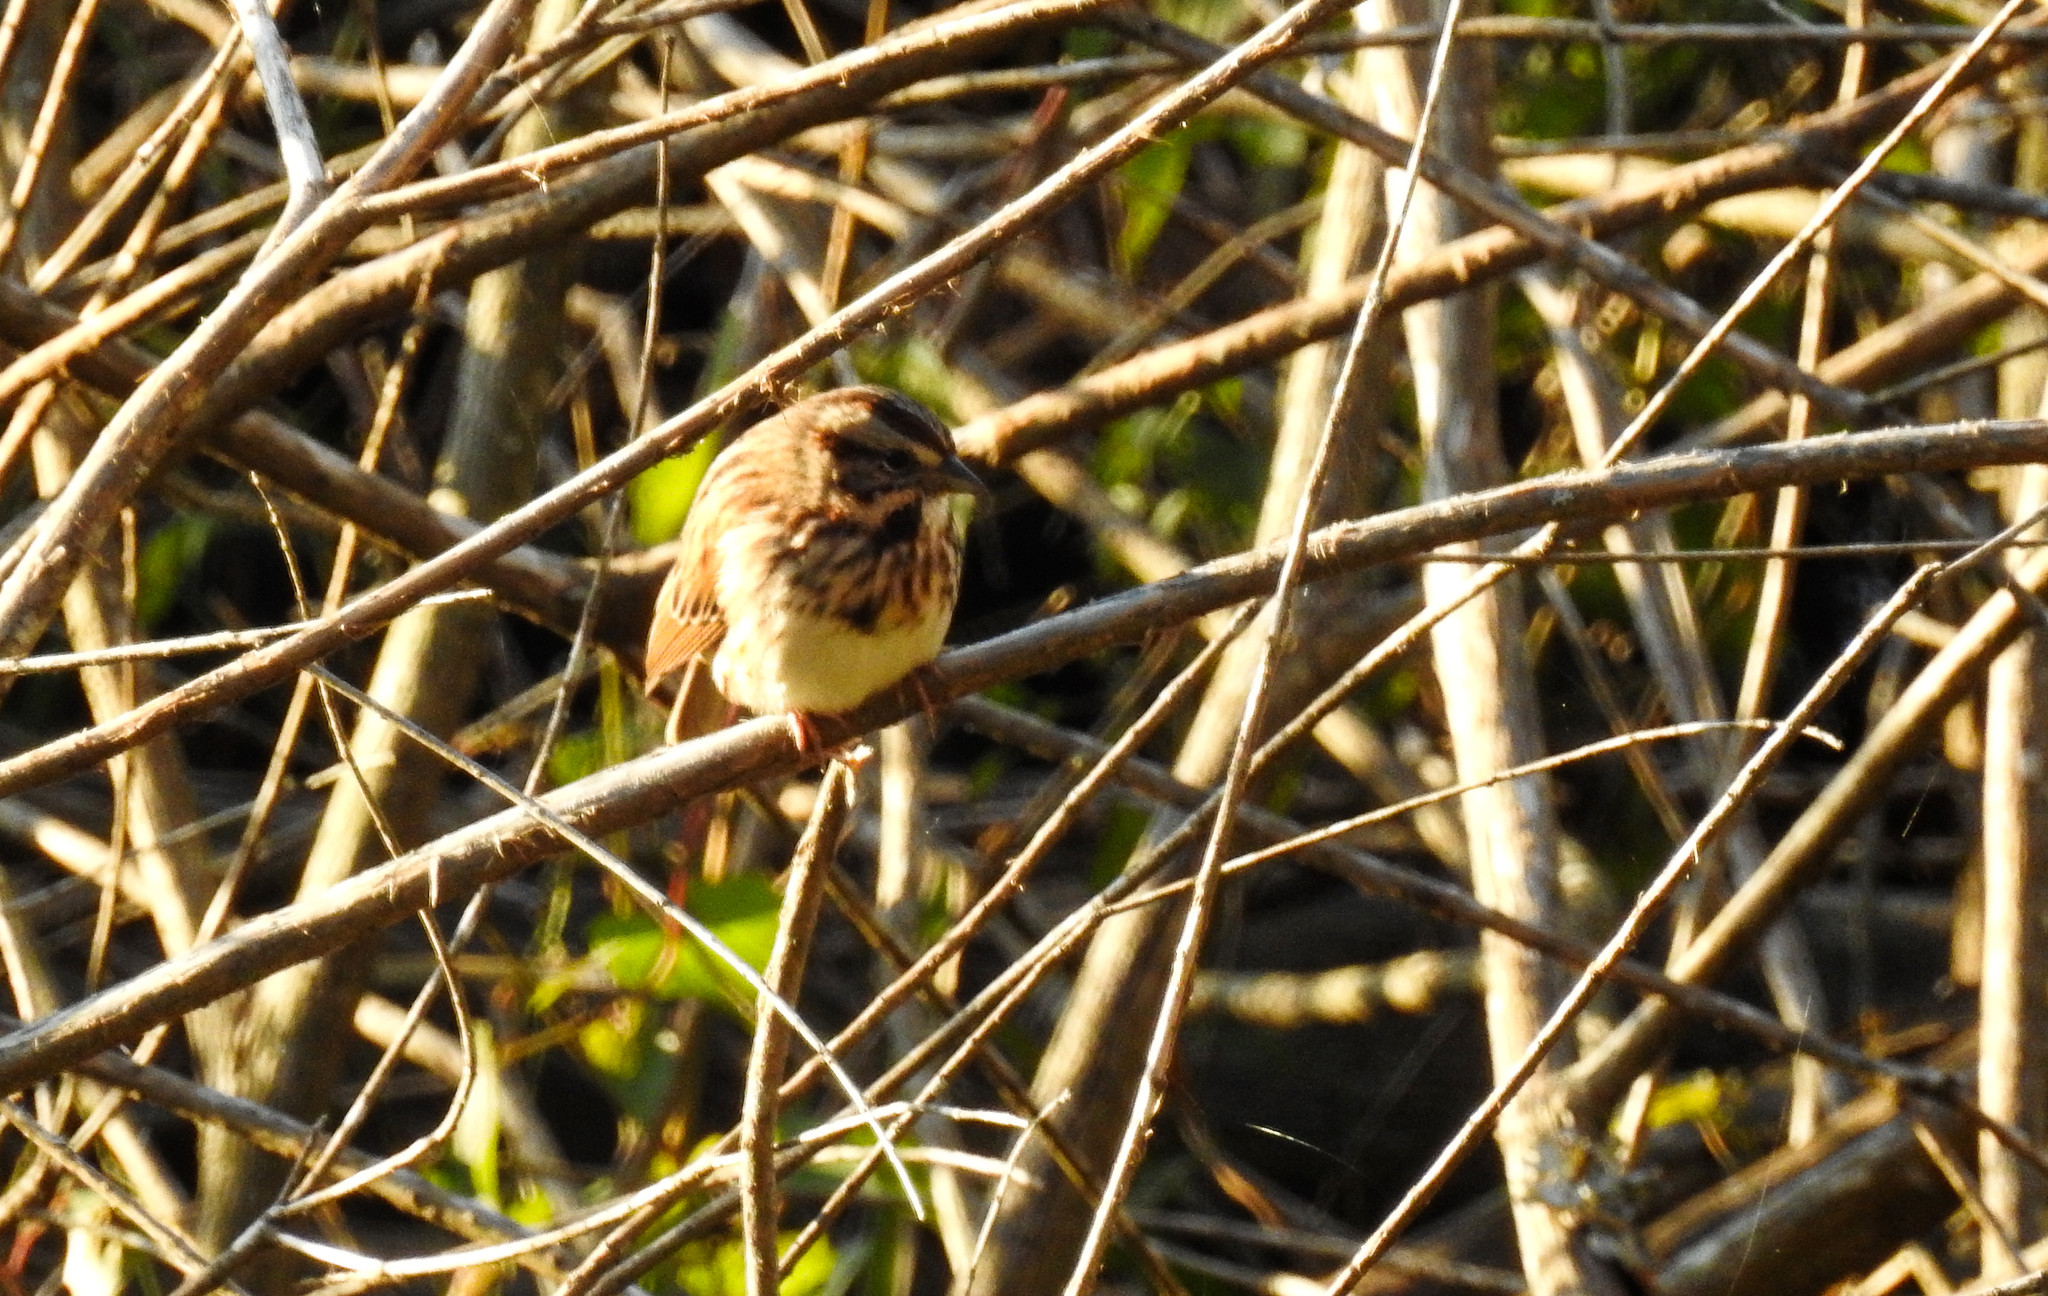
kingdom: Animalia
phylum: Chordata
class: Aves
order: Passeriformes
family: Passerellidae
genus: Melospiza
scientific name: Melospiza melodia
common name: Song sparrow
